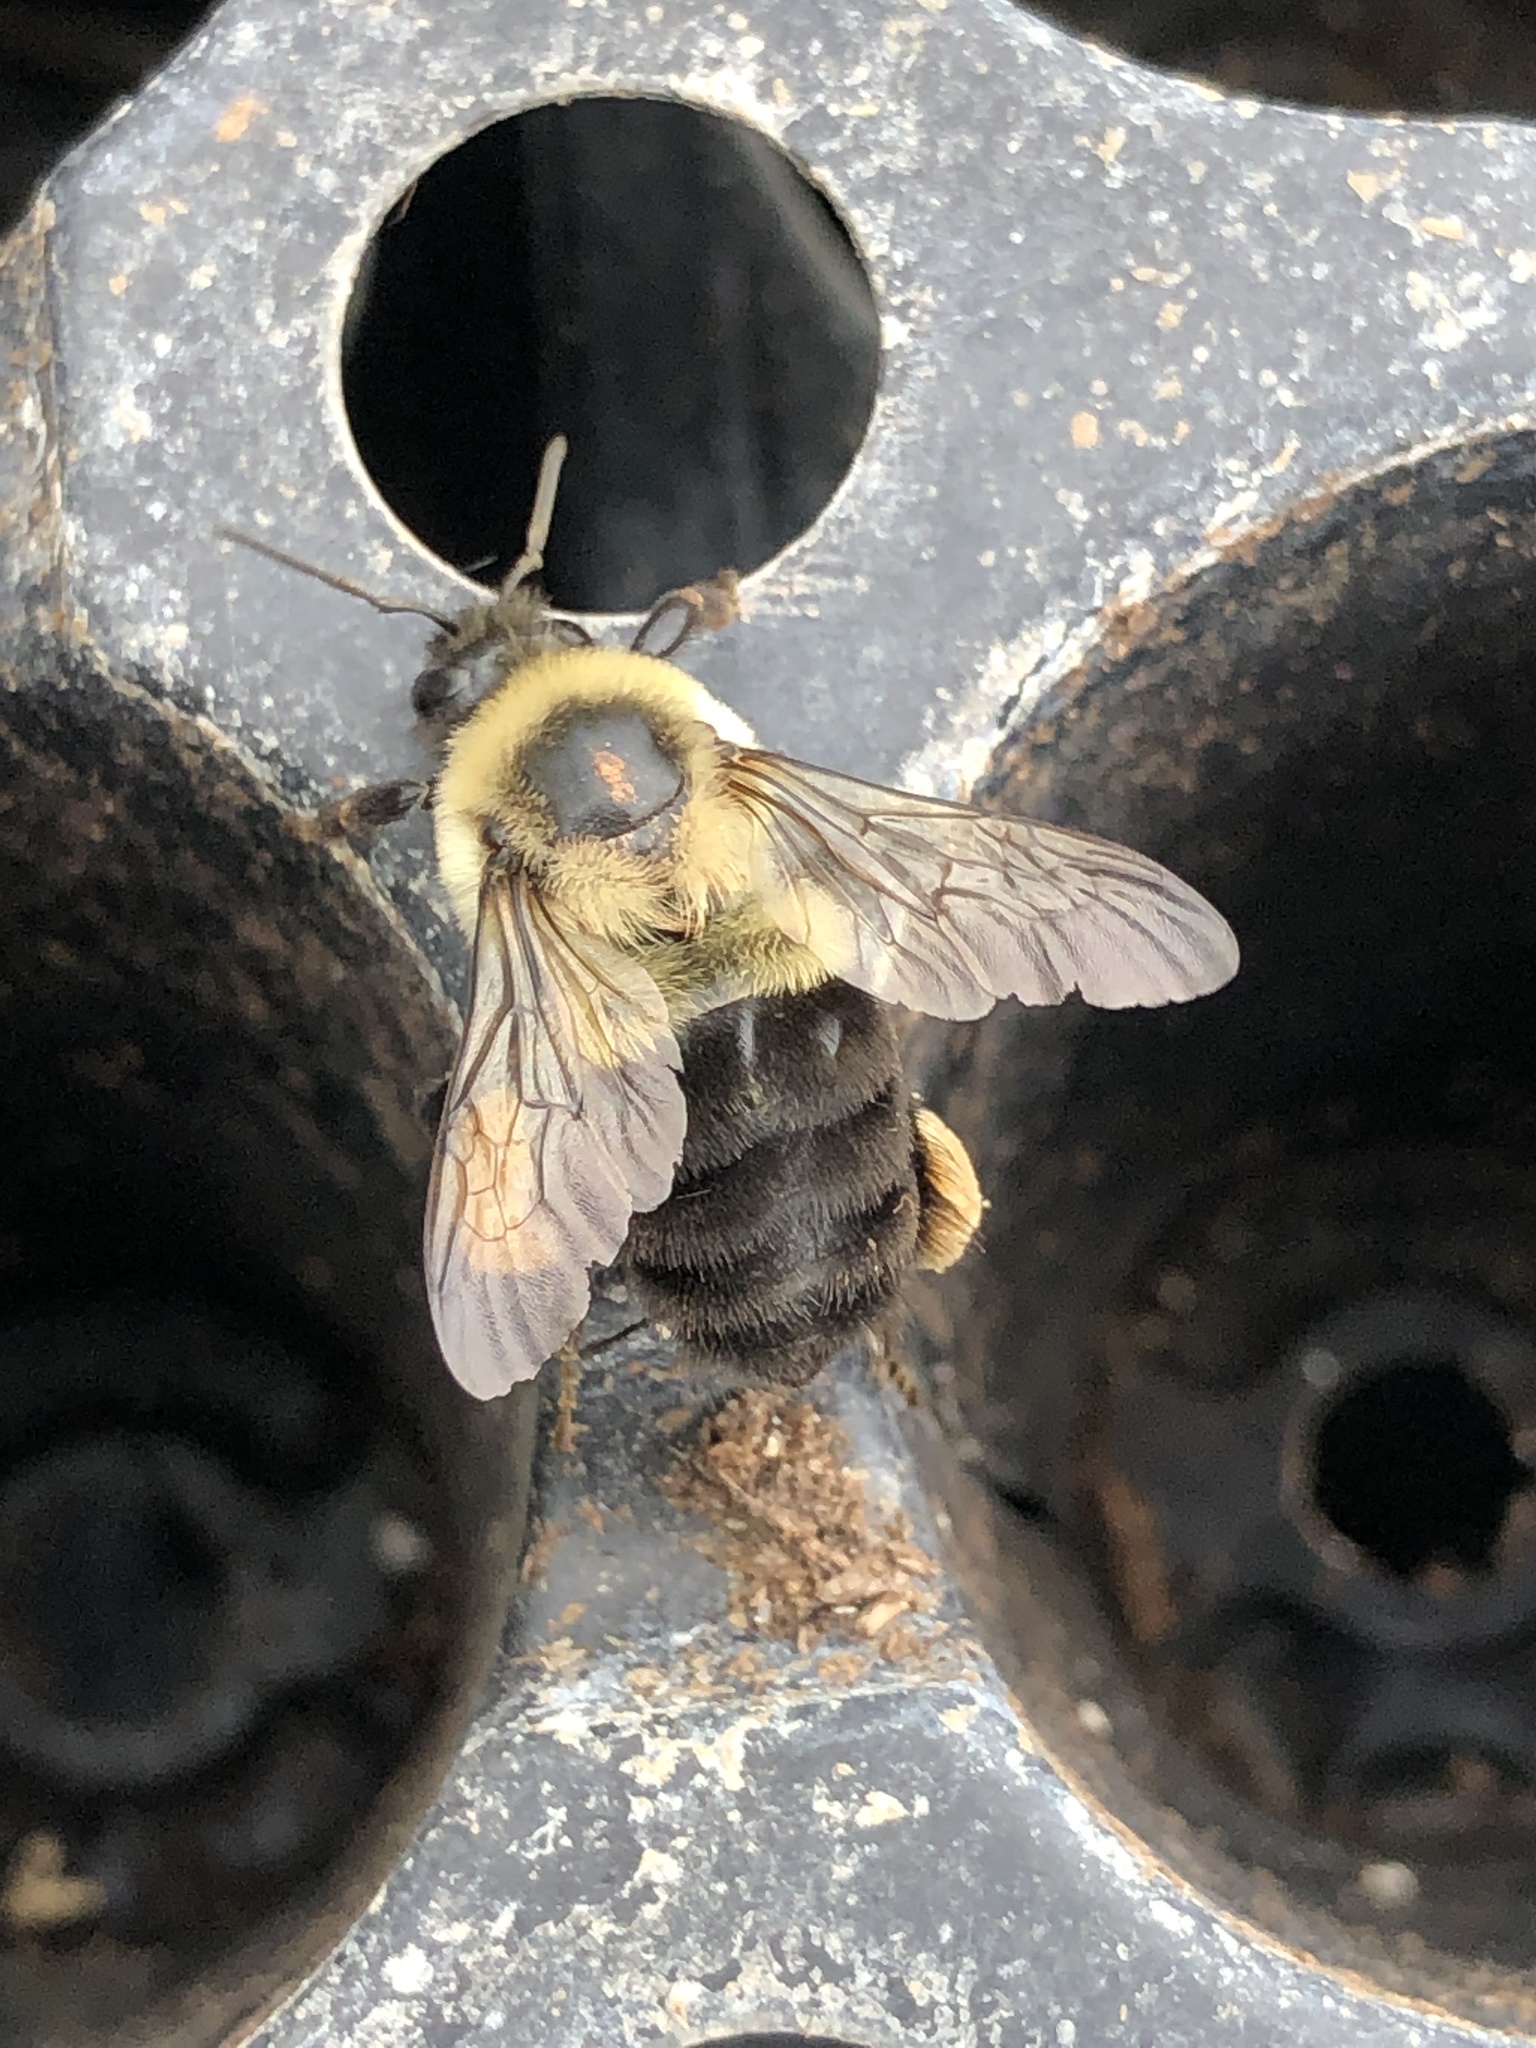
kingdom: Animalia
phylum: Arthropoda
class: Insecta
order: Hymenoptera
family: Apidae
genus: Bombus
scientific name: Bombus impatiens
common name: Common eastern bumble bee
